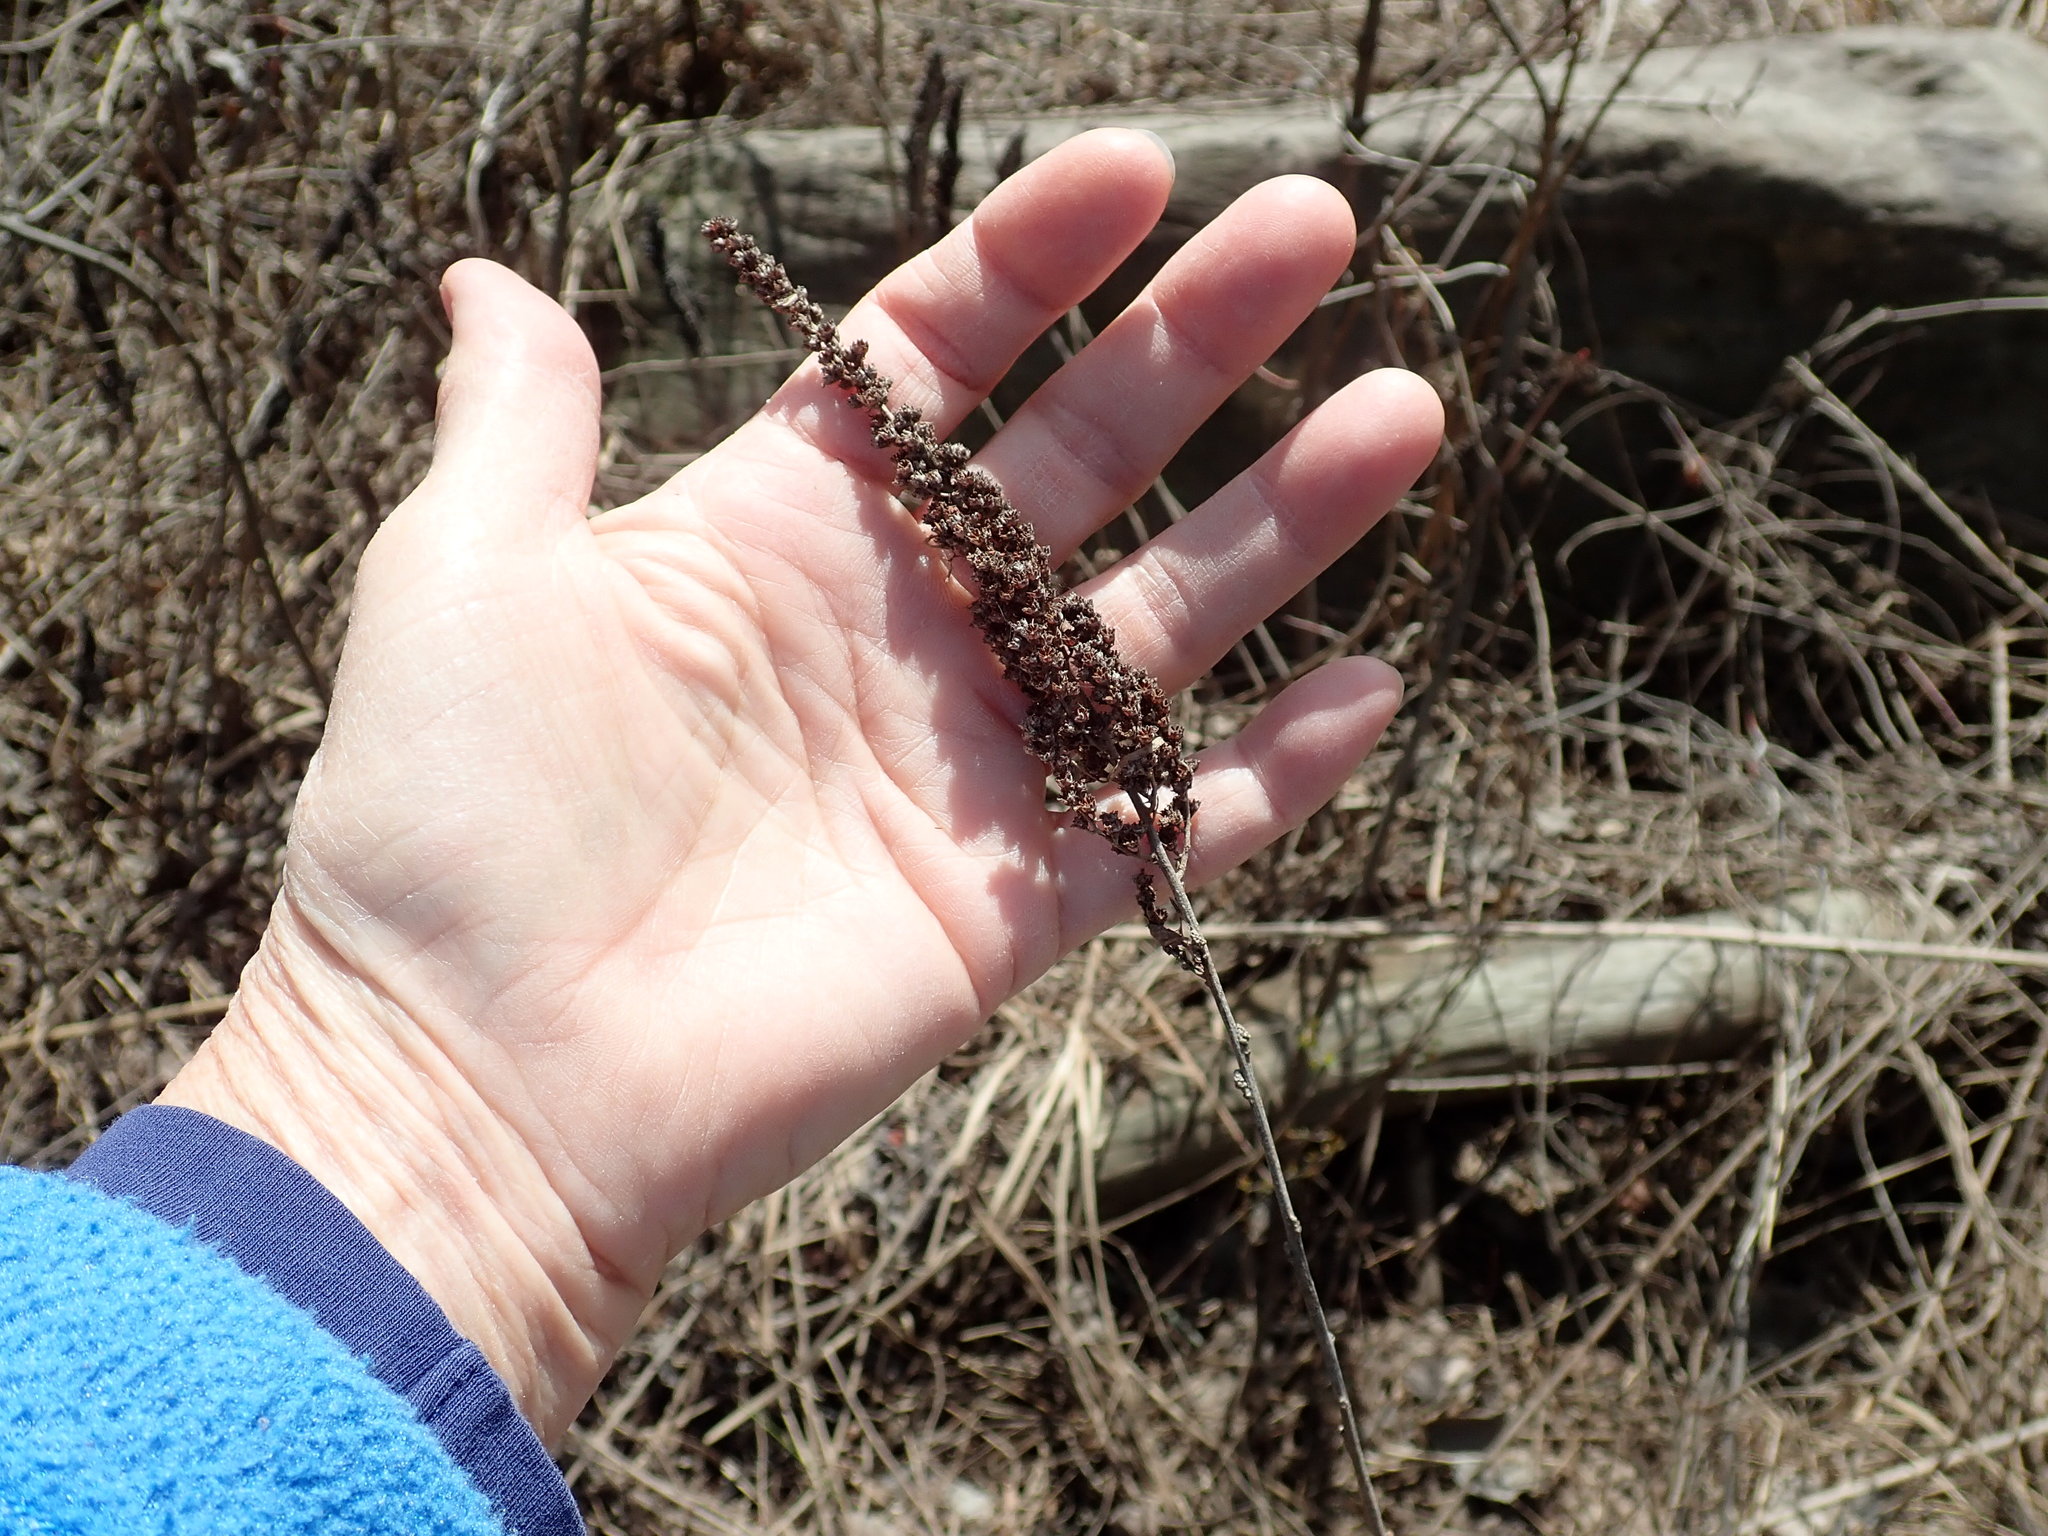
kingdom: Plantae
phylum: Tracheophyta
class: Magnoliopsida
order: Rosales
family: Rosaceae
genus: Spiraea
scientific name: Spiraea tomentosa
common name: Hardhack
